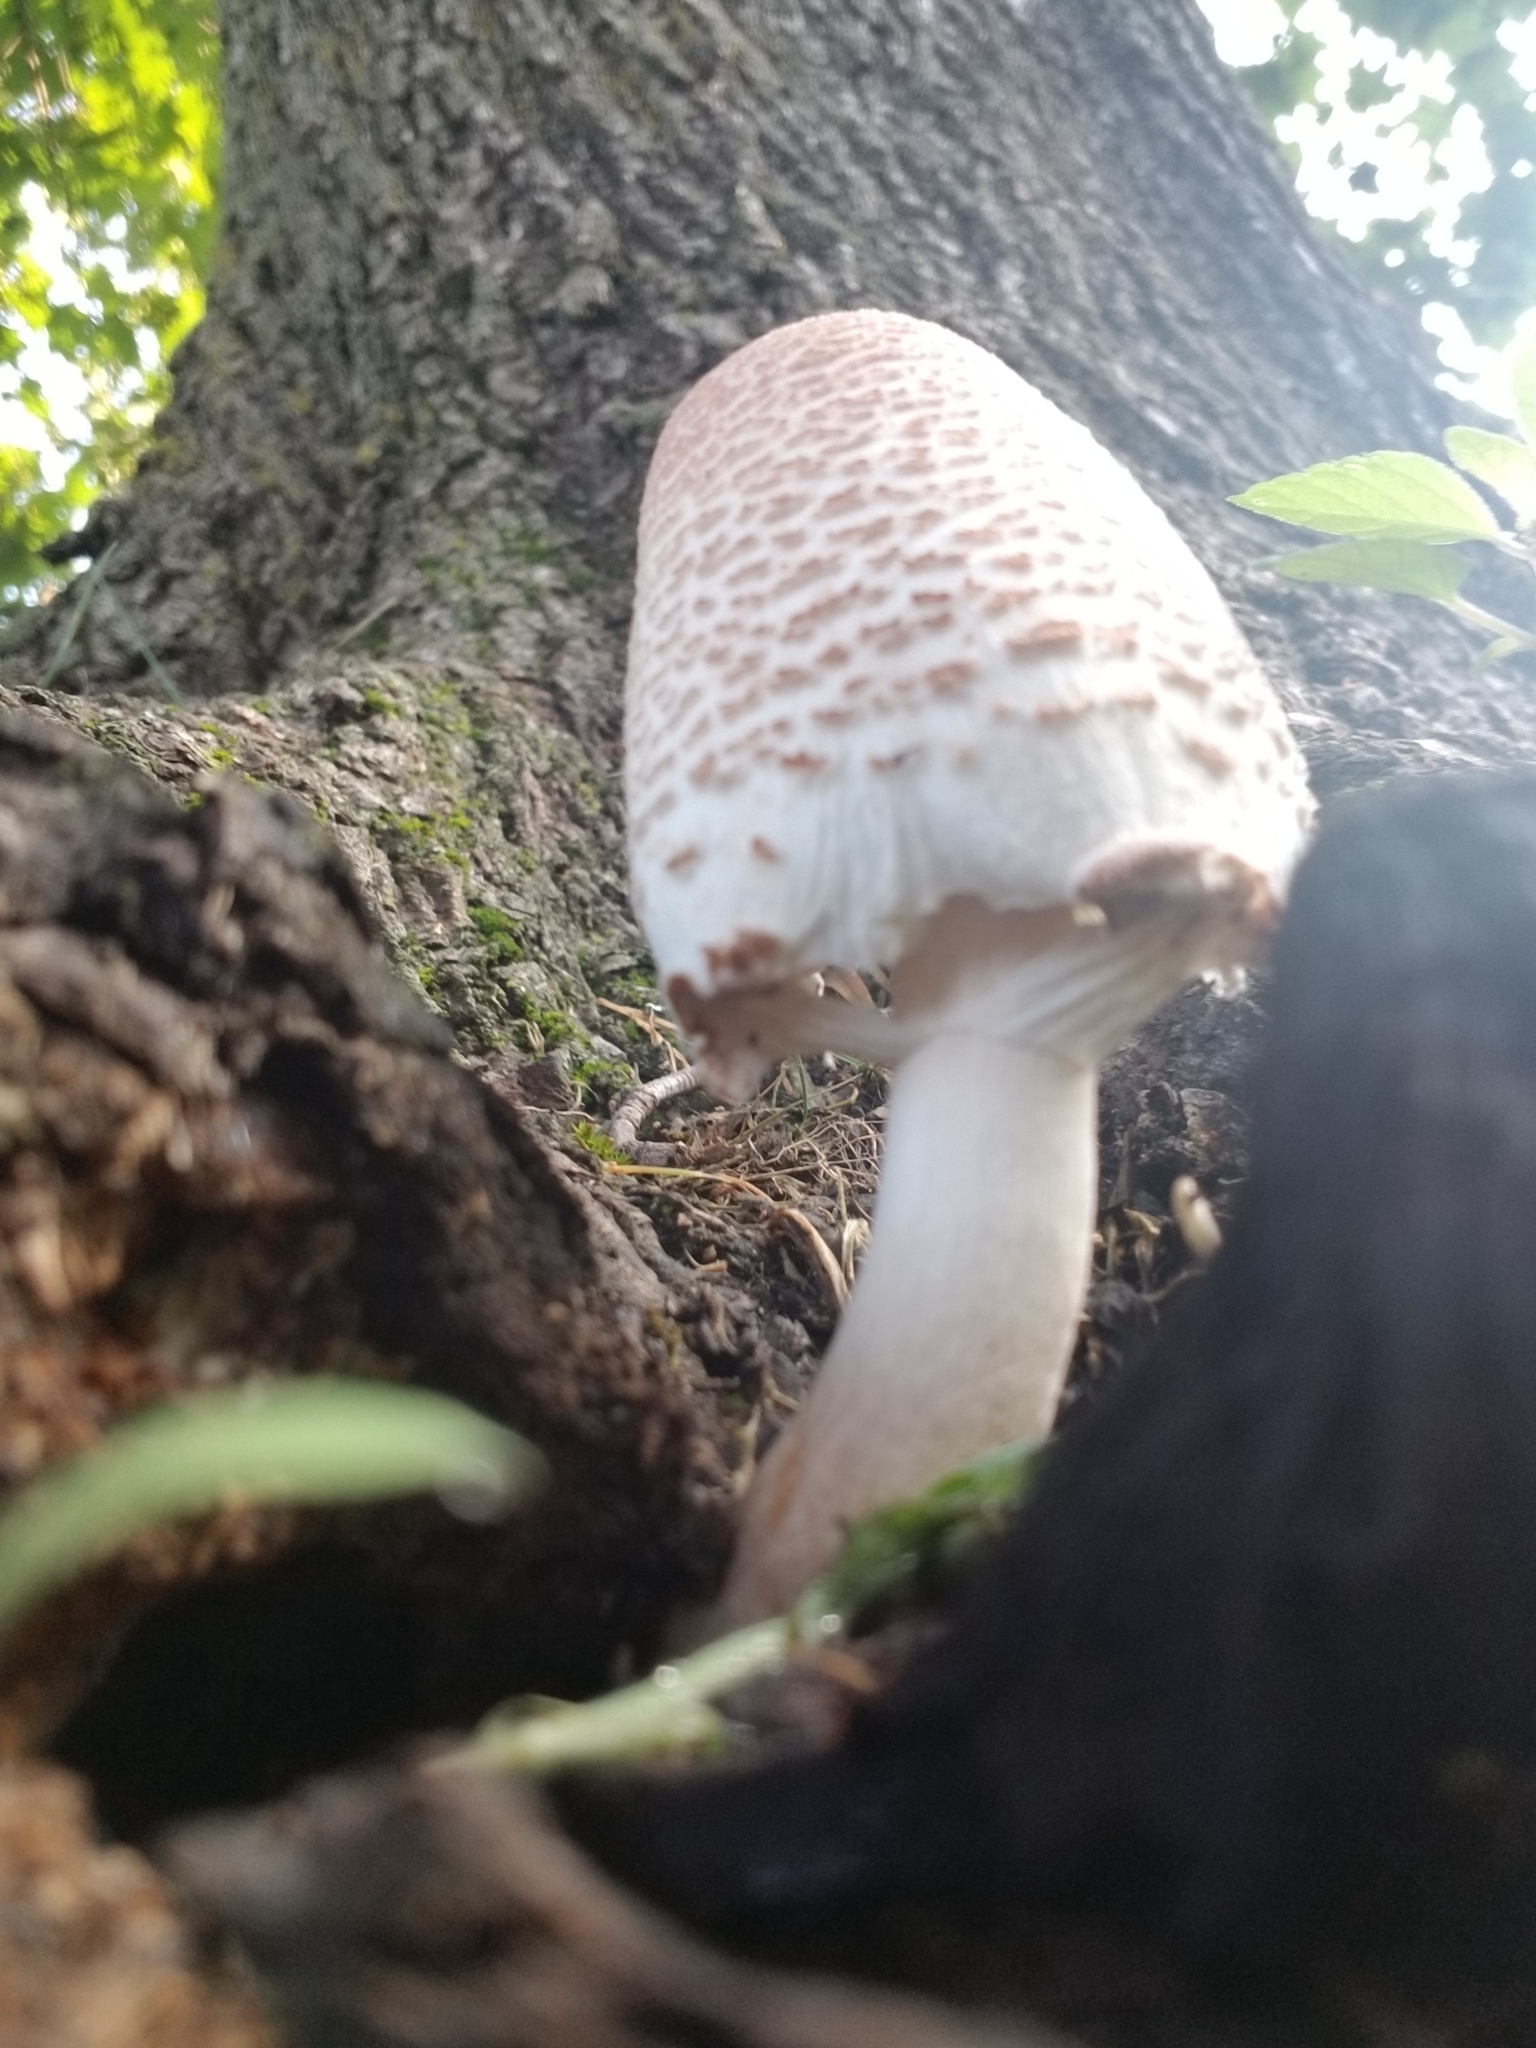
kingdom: Fungi
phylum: Basidiomycota
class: Agaricomycetes
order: Agaricales
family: Agaricaceae
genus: Leucoagaricus
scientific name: Leucoagaricus americanus
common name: Reddening lepiota
